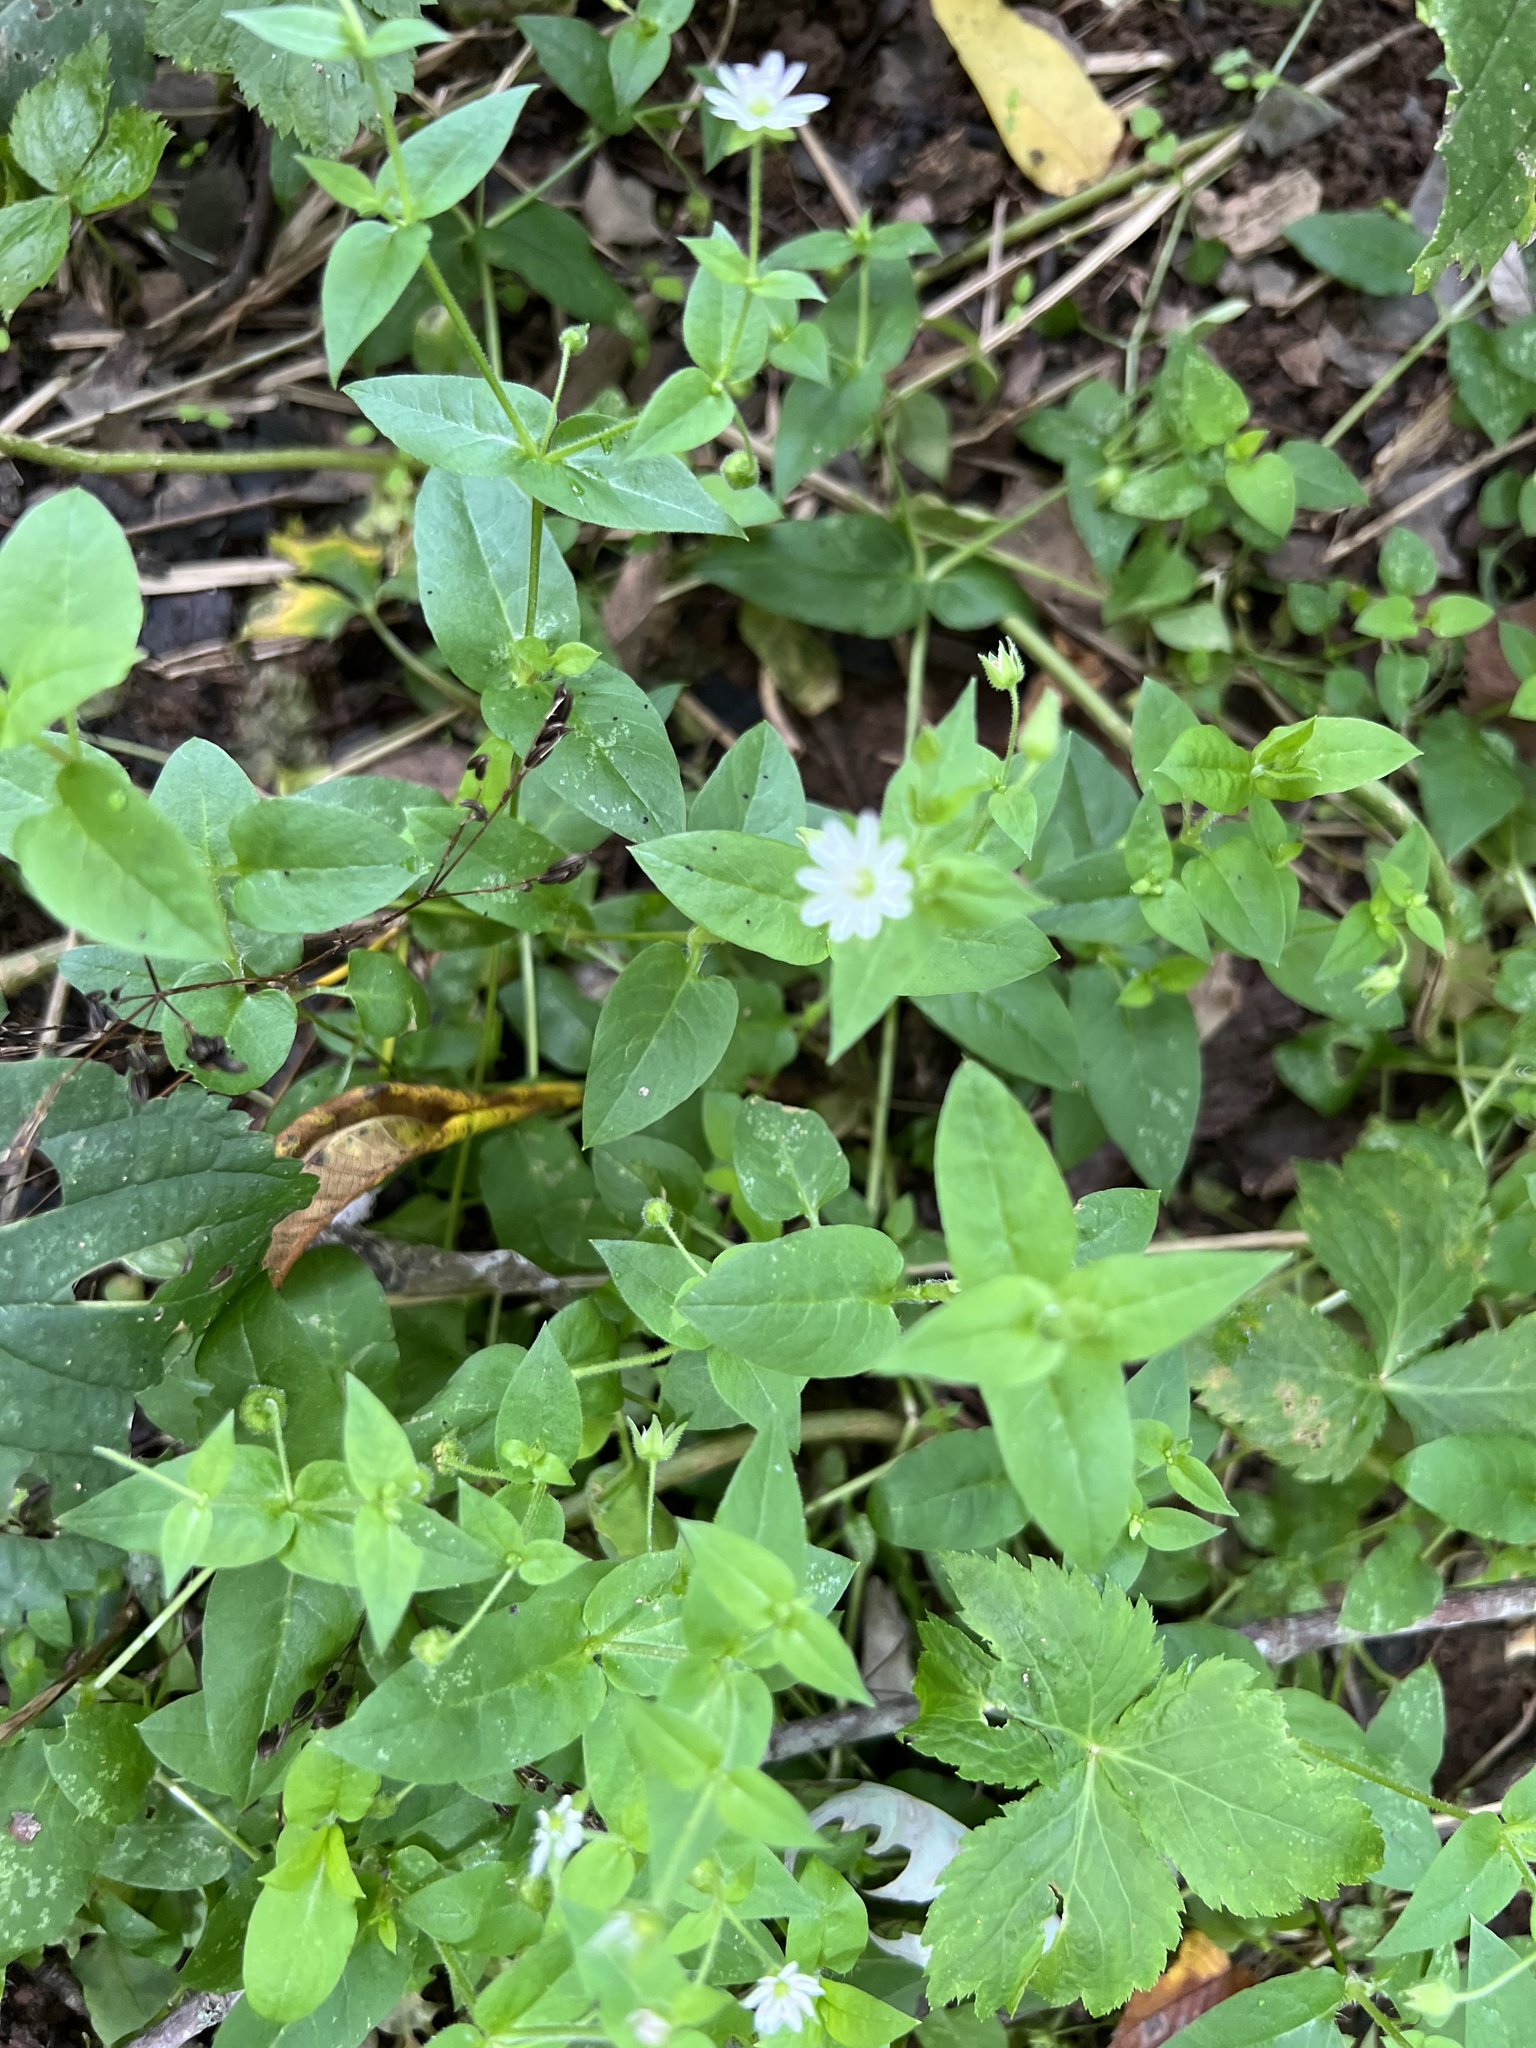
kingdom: Plantae
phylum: Tracheophyta
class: Magnoliopsida
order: Caryophyllales
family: Caryophyllaceae
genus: Stellaria
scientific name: Stellaria aquatica
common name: Water chickweed
